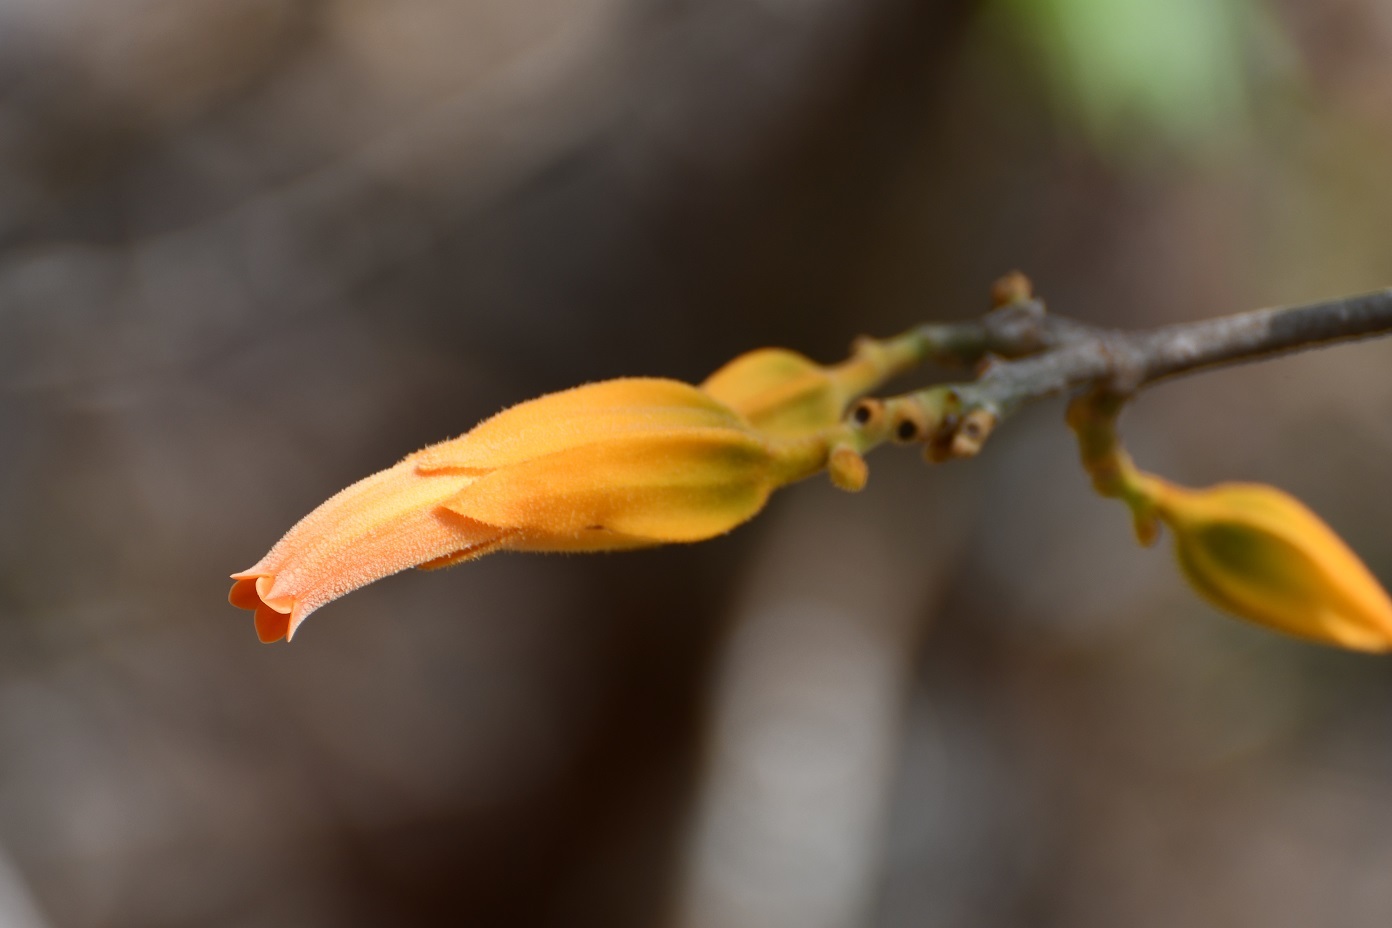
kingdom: Plantae
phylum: Tracheophyta
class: Magnoliopsida
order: Solanales
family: Solanaceae
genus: Juanulloa
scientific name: Juanulloa mexicana
